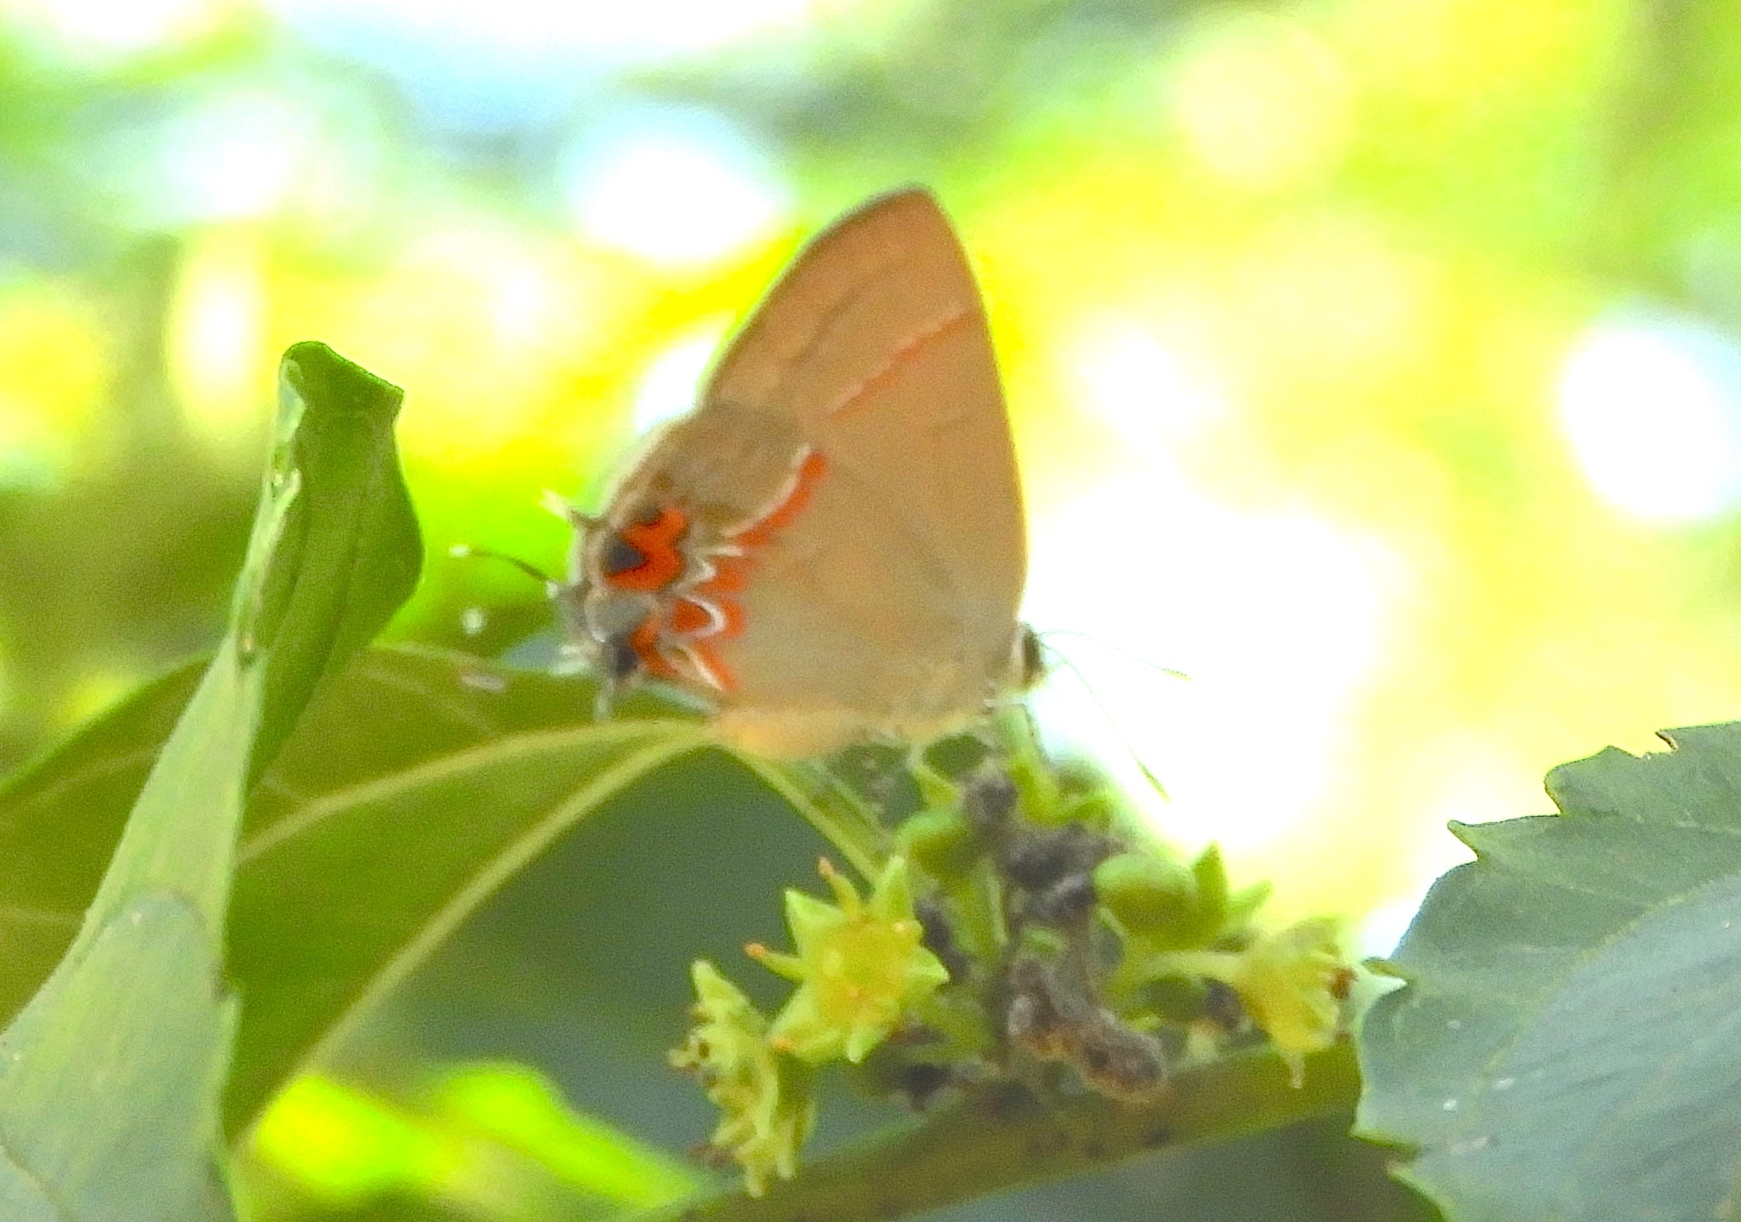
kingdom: Animalia
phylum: Arthropoda
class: Insecta
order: Lepidoptera
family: Lycaenidae
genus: Calycopis
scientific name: Calycopis
